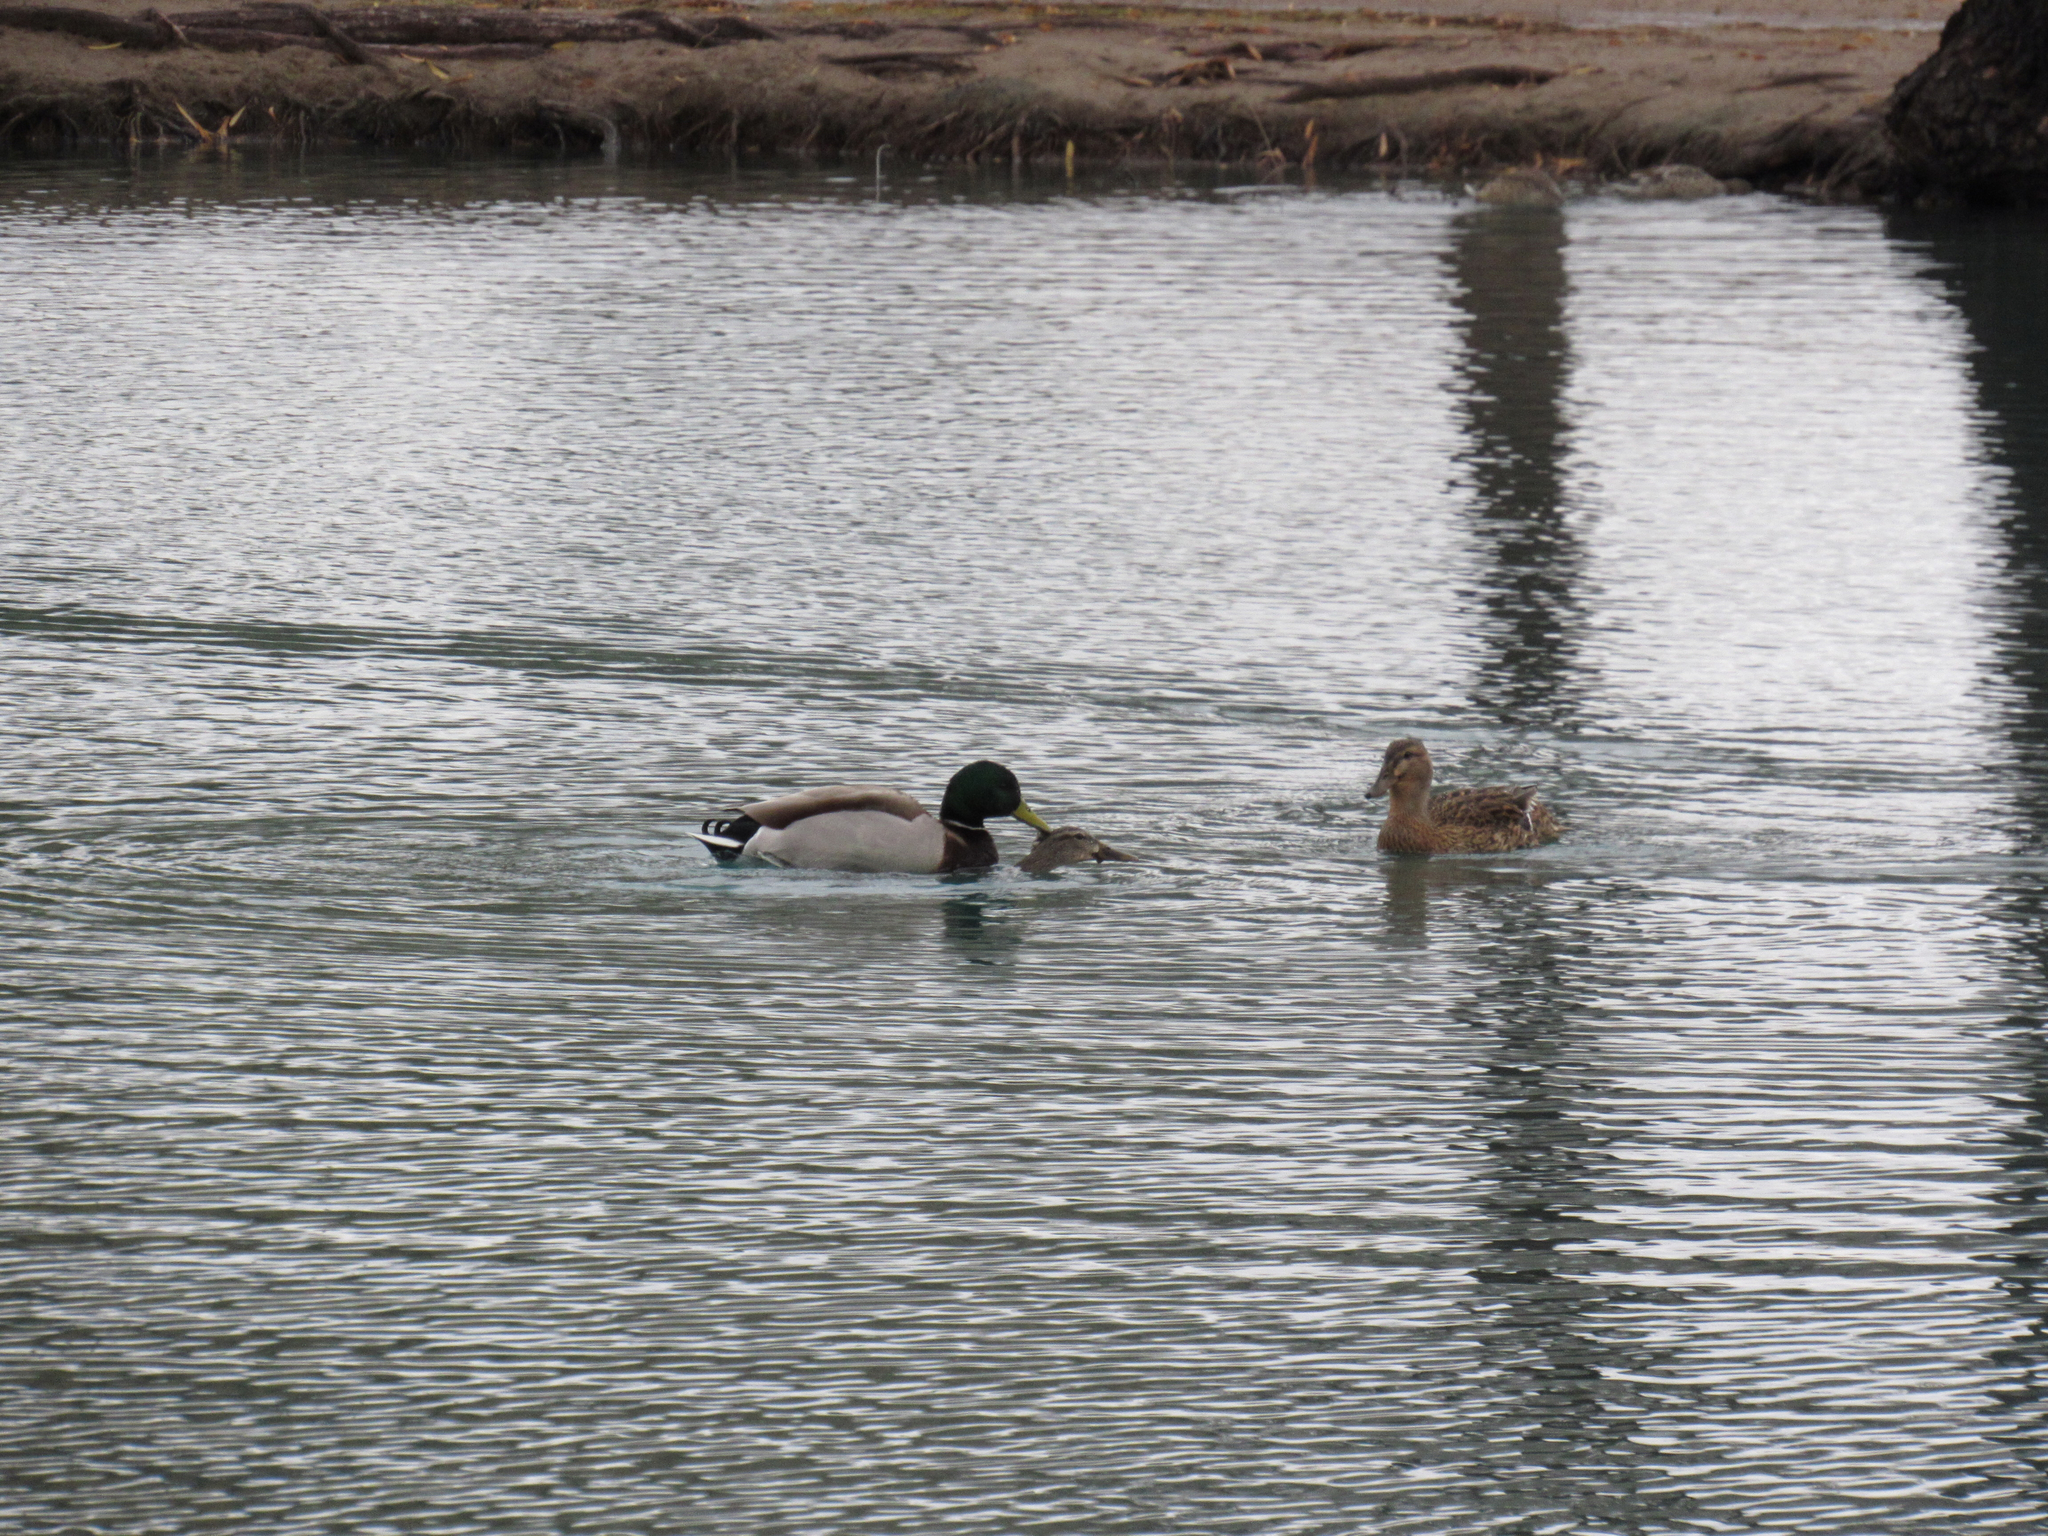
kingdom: Animalia
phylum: Chordata
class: Aves
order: Anseriformes
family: Anatidae
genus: Anas
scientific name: Anas platyrhynchos
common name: Mallard
